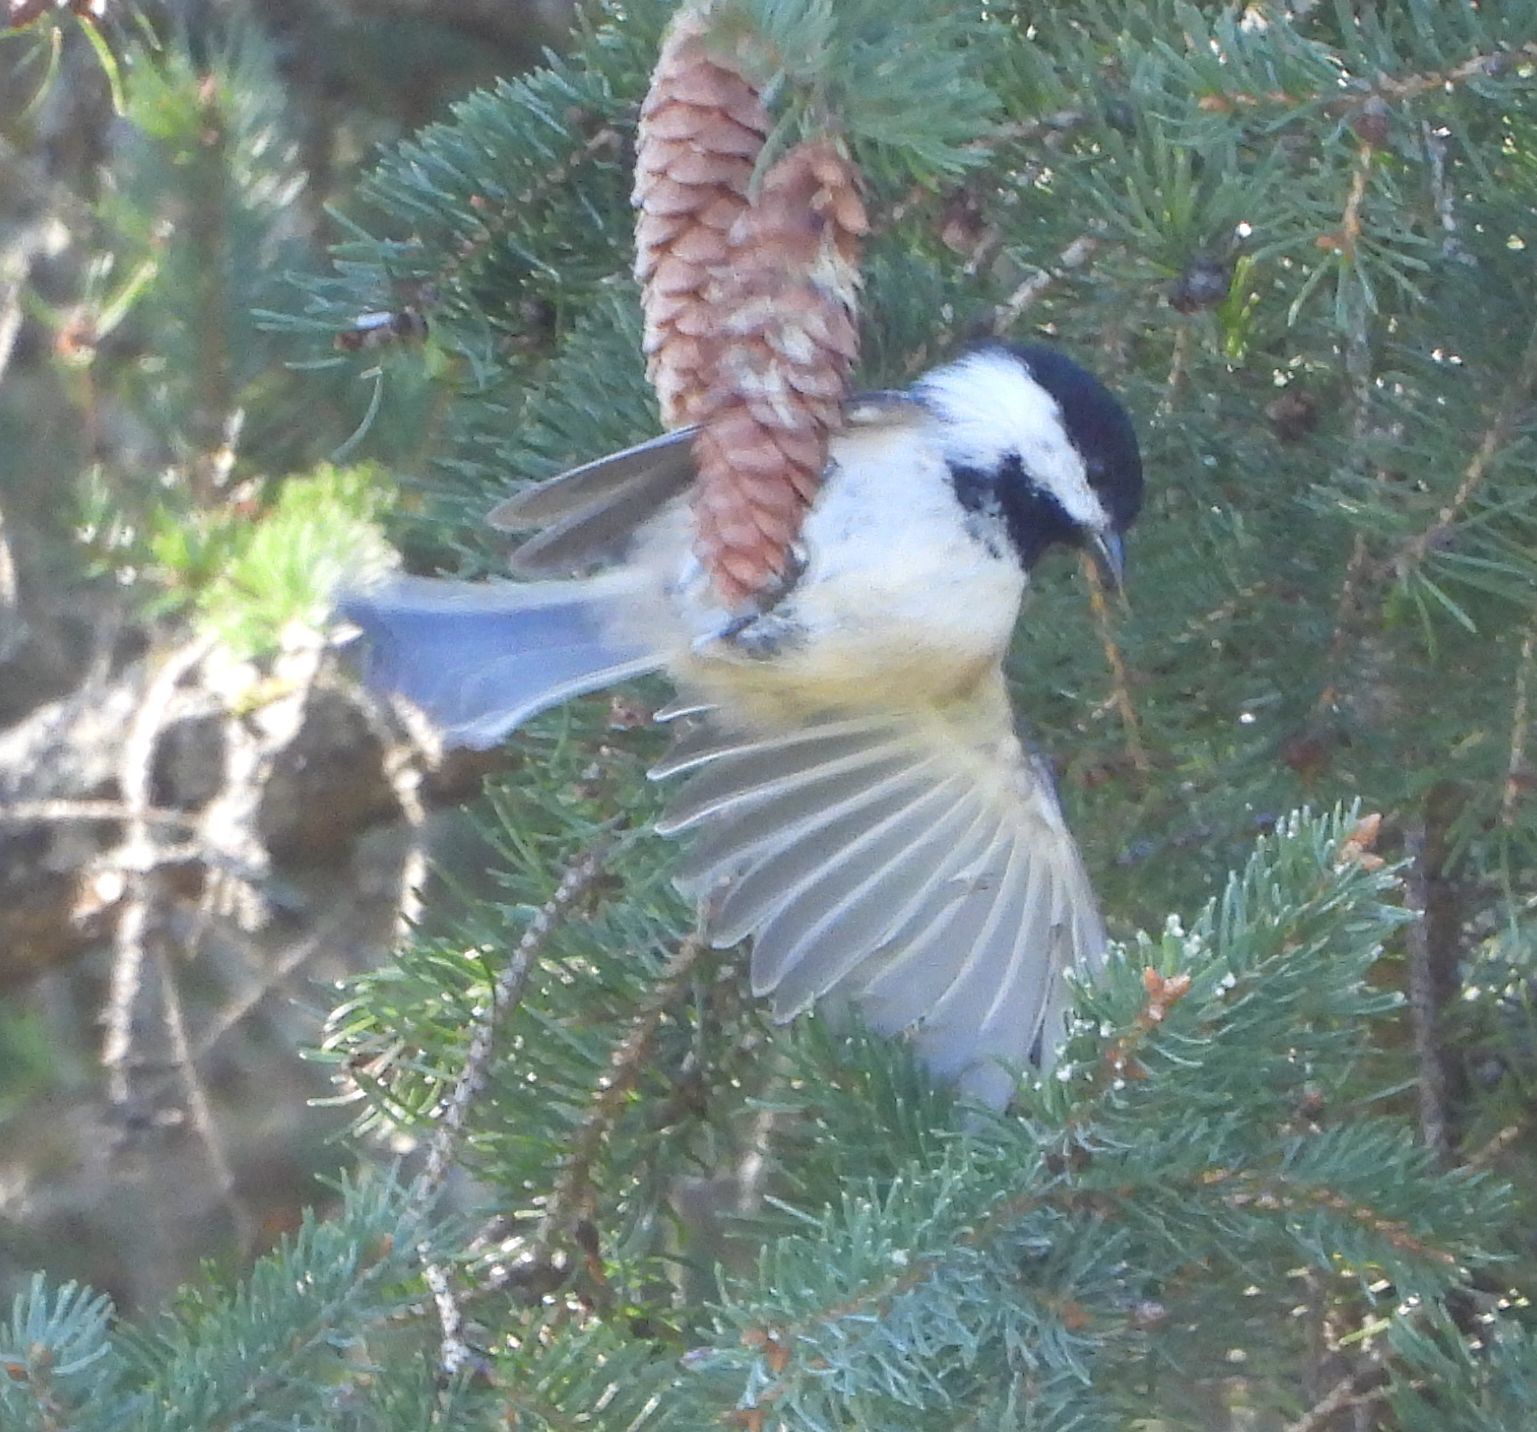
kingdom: Animalia
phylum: Chordata
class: Aves
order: Passeriformes
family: Paridae
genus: Poecile
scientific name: Poecile atricapillus
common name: Black-capped chickadee
